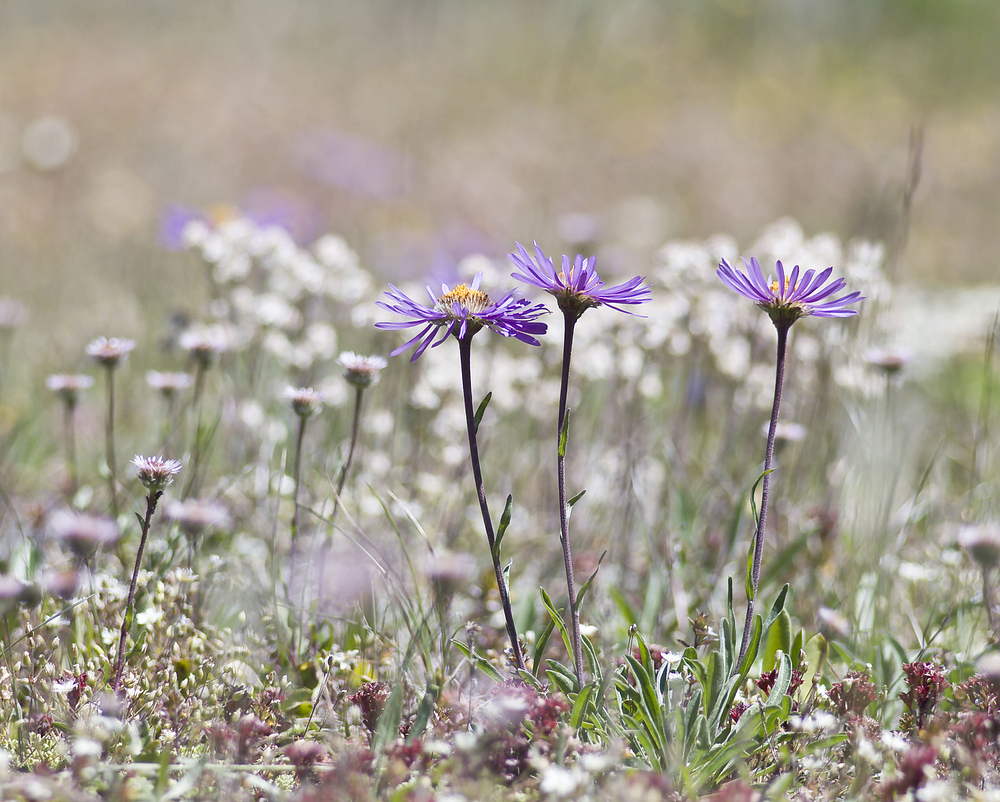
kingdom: Plantae
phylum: Tracheophyta
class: Magnoliopsida
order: Asterales
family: Asteraceae
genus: Aster
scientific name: Aster alpinus
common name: Alpine aster
